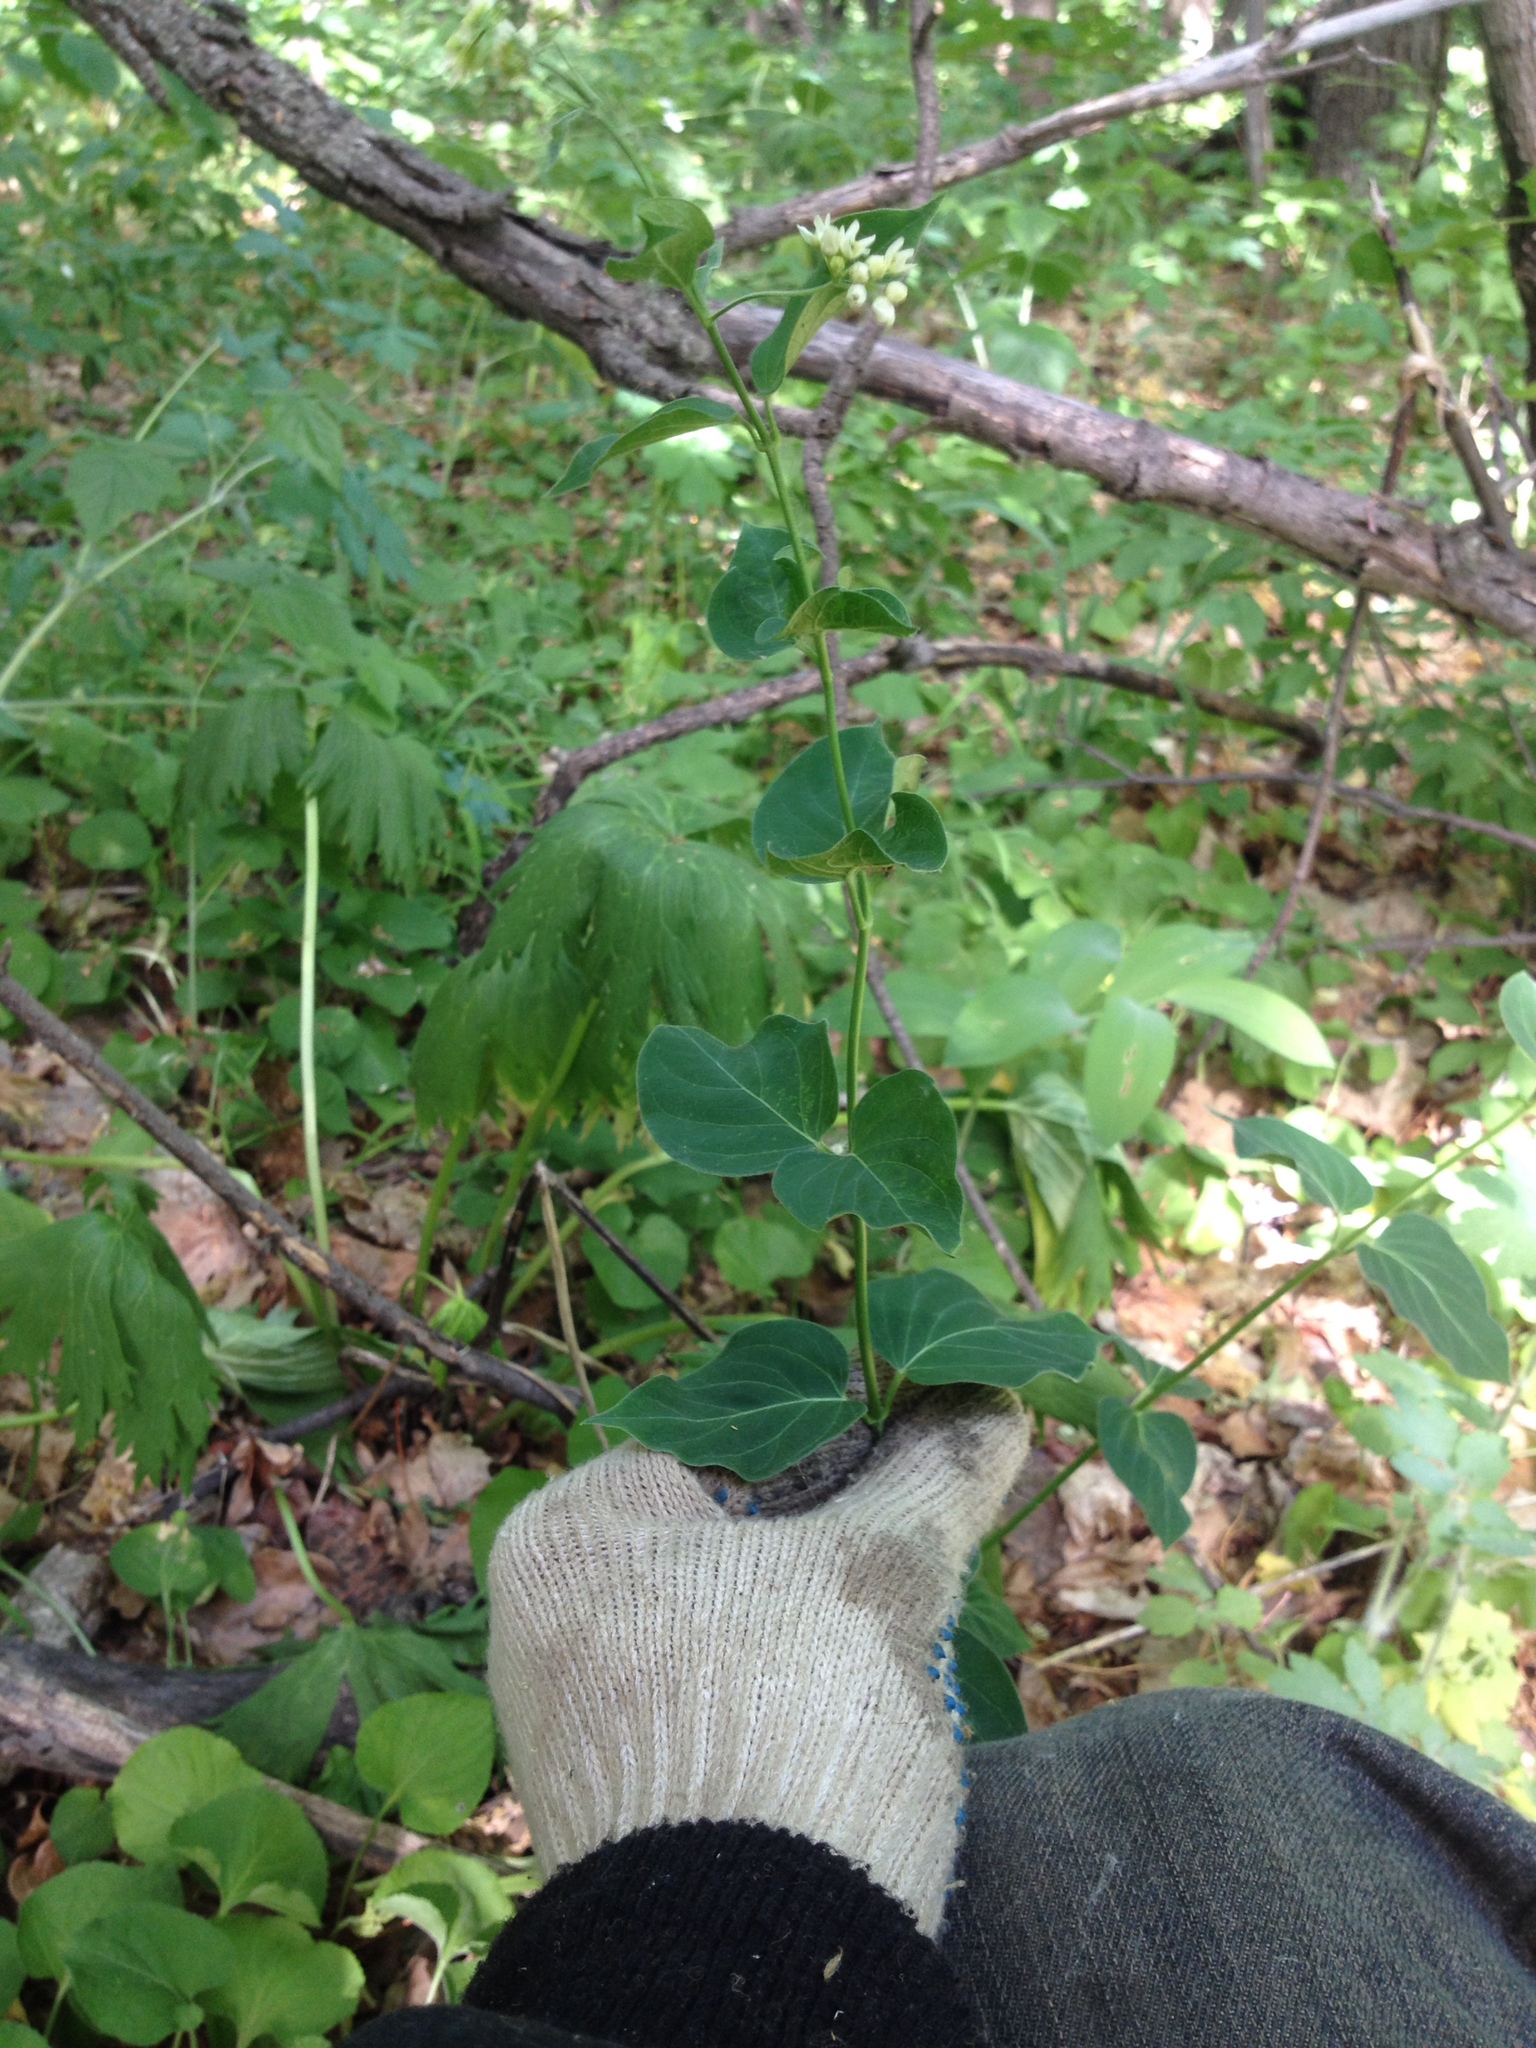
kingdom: Plantae
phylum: Tracheophyta
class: Magnoliopsida
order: Dipsacales
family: Caprifoliaceae
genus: Lonicera
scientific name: Lonicera tatarica
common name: Tatarian honeysuckle
